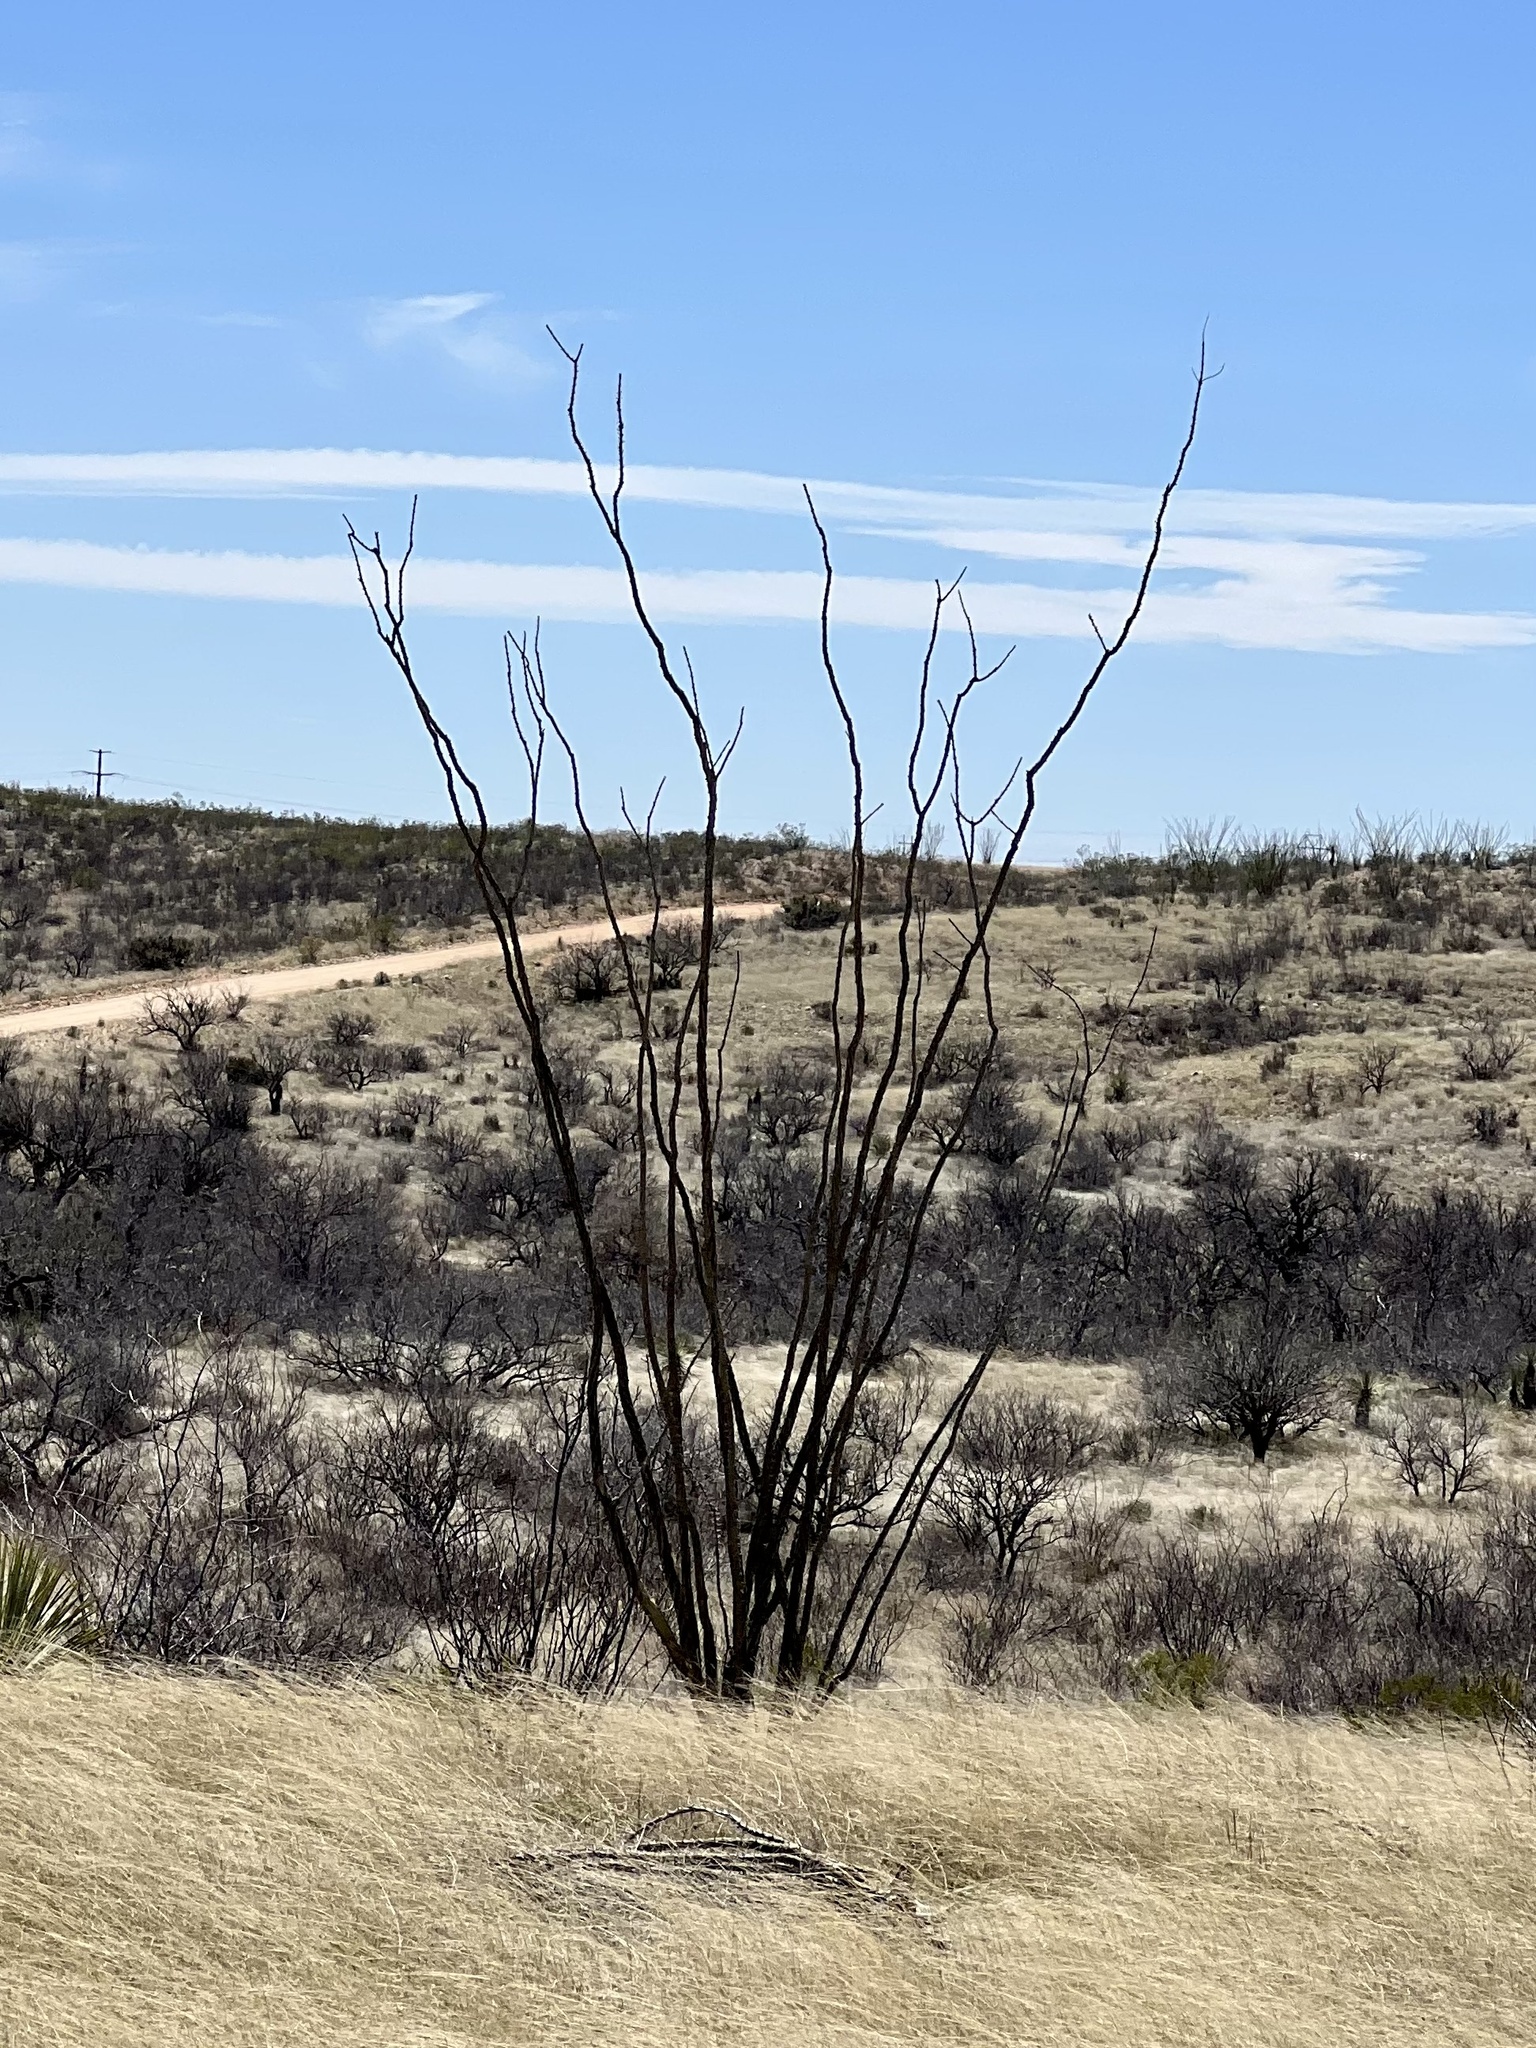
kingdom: Plantae
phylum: Tracheophyta
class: Magnoliopsida
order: Ericales
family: Fouquieriaceae
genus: Fouquieria
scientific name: Fouquieria splendens
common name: Vine-cactus
